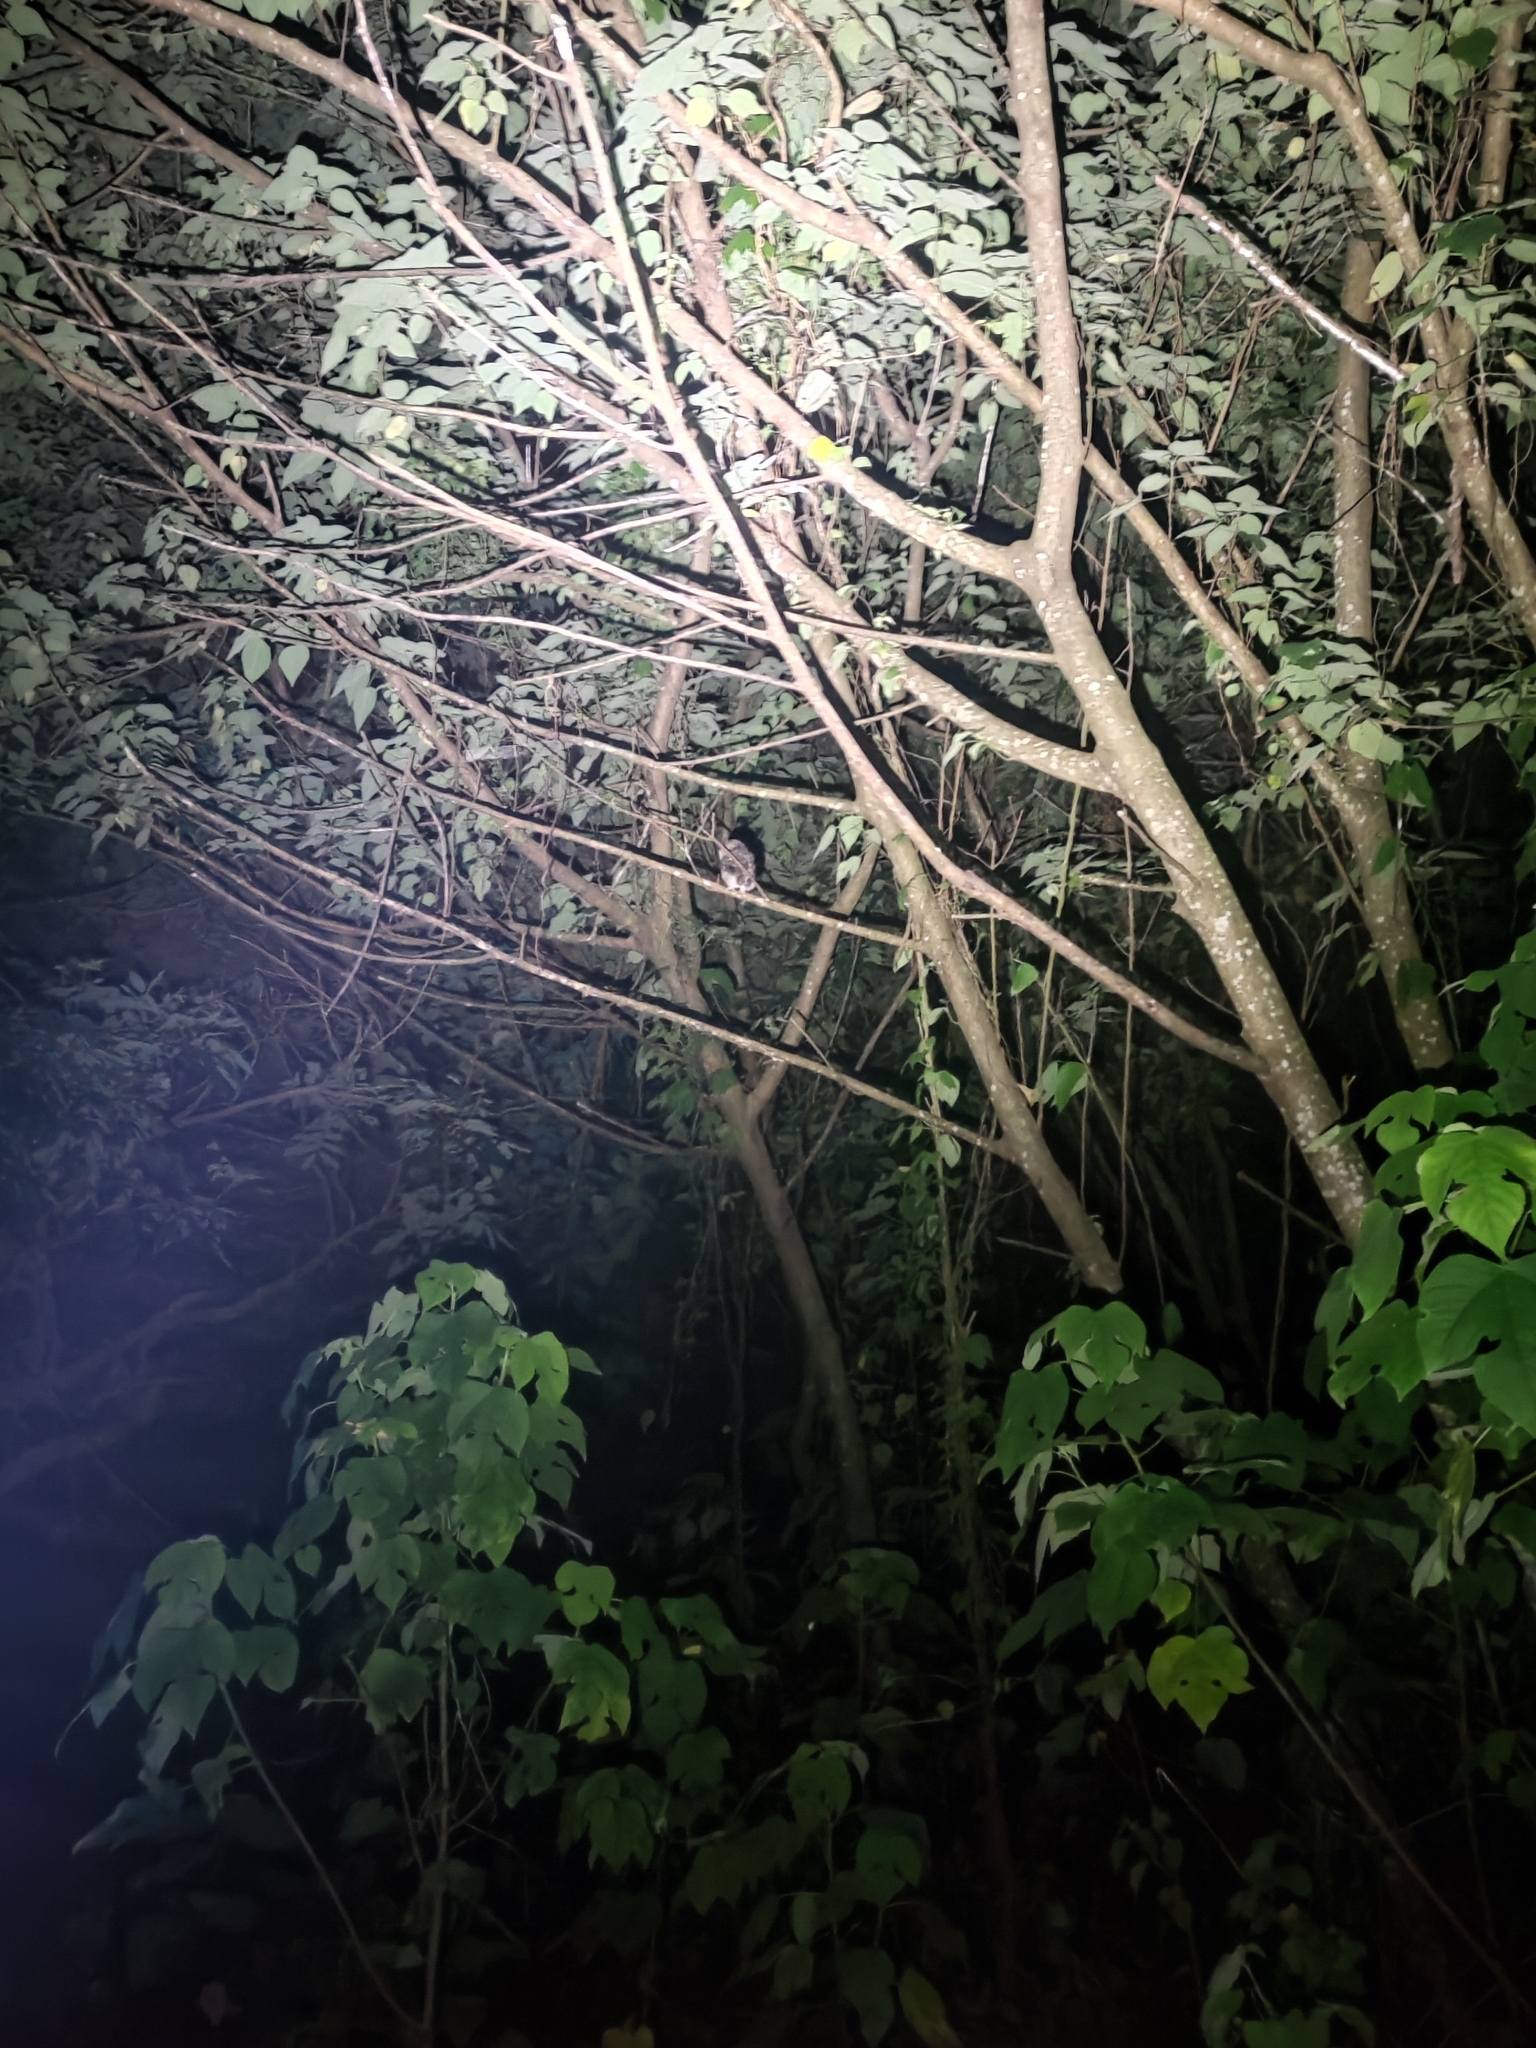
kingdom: Animalia
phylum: Chordata
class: Aves
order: Strigiformes
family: Strigidae
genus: Otus
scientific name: Otus lettia
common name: Collared scops owl
